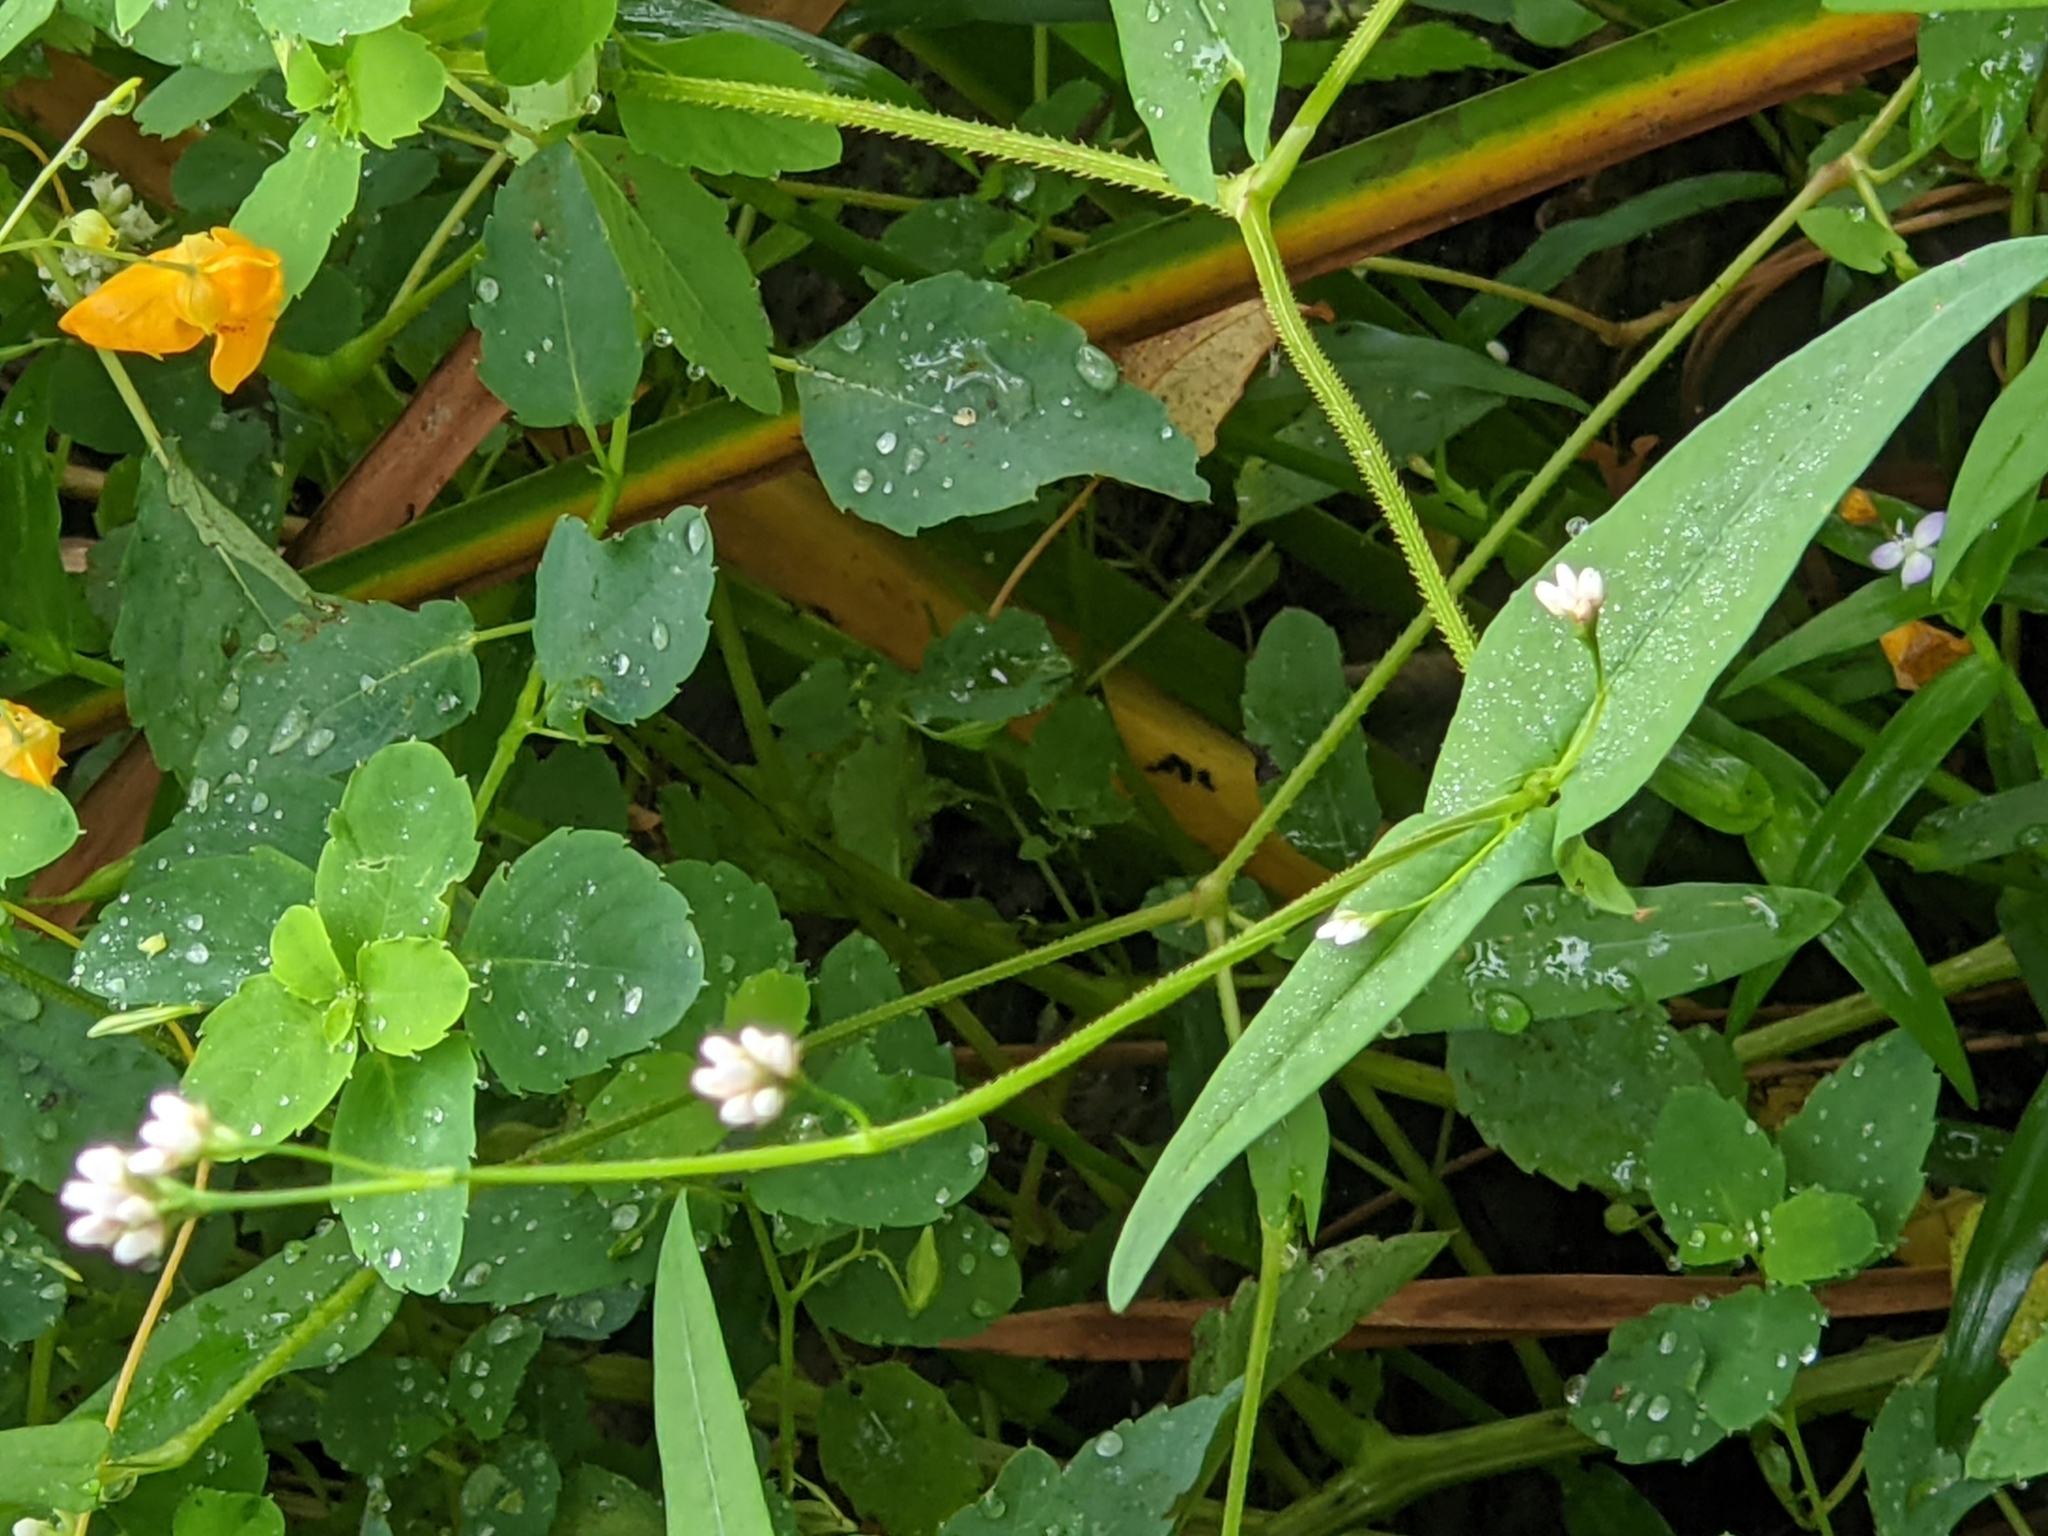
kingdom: Plantae
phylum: Tracheophyta
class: Magnoliopsida
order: Caryophyllales
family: Polygonaceae
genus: Persicaria
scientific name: Persicaria sagittata
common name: American tearthumb
